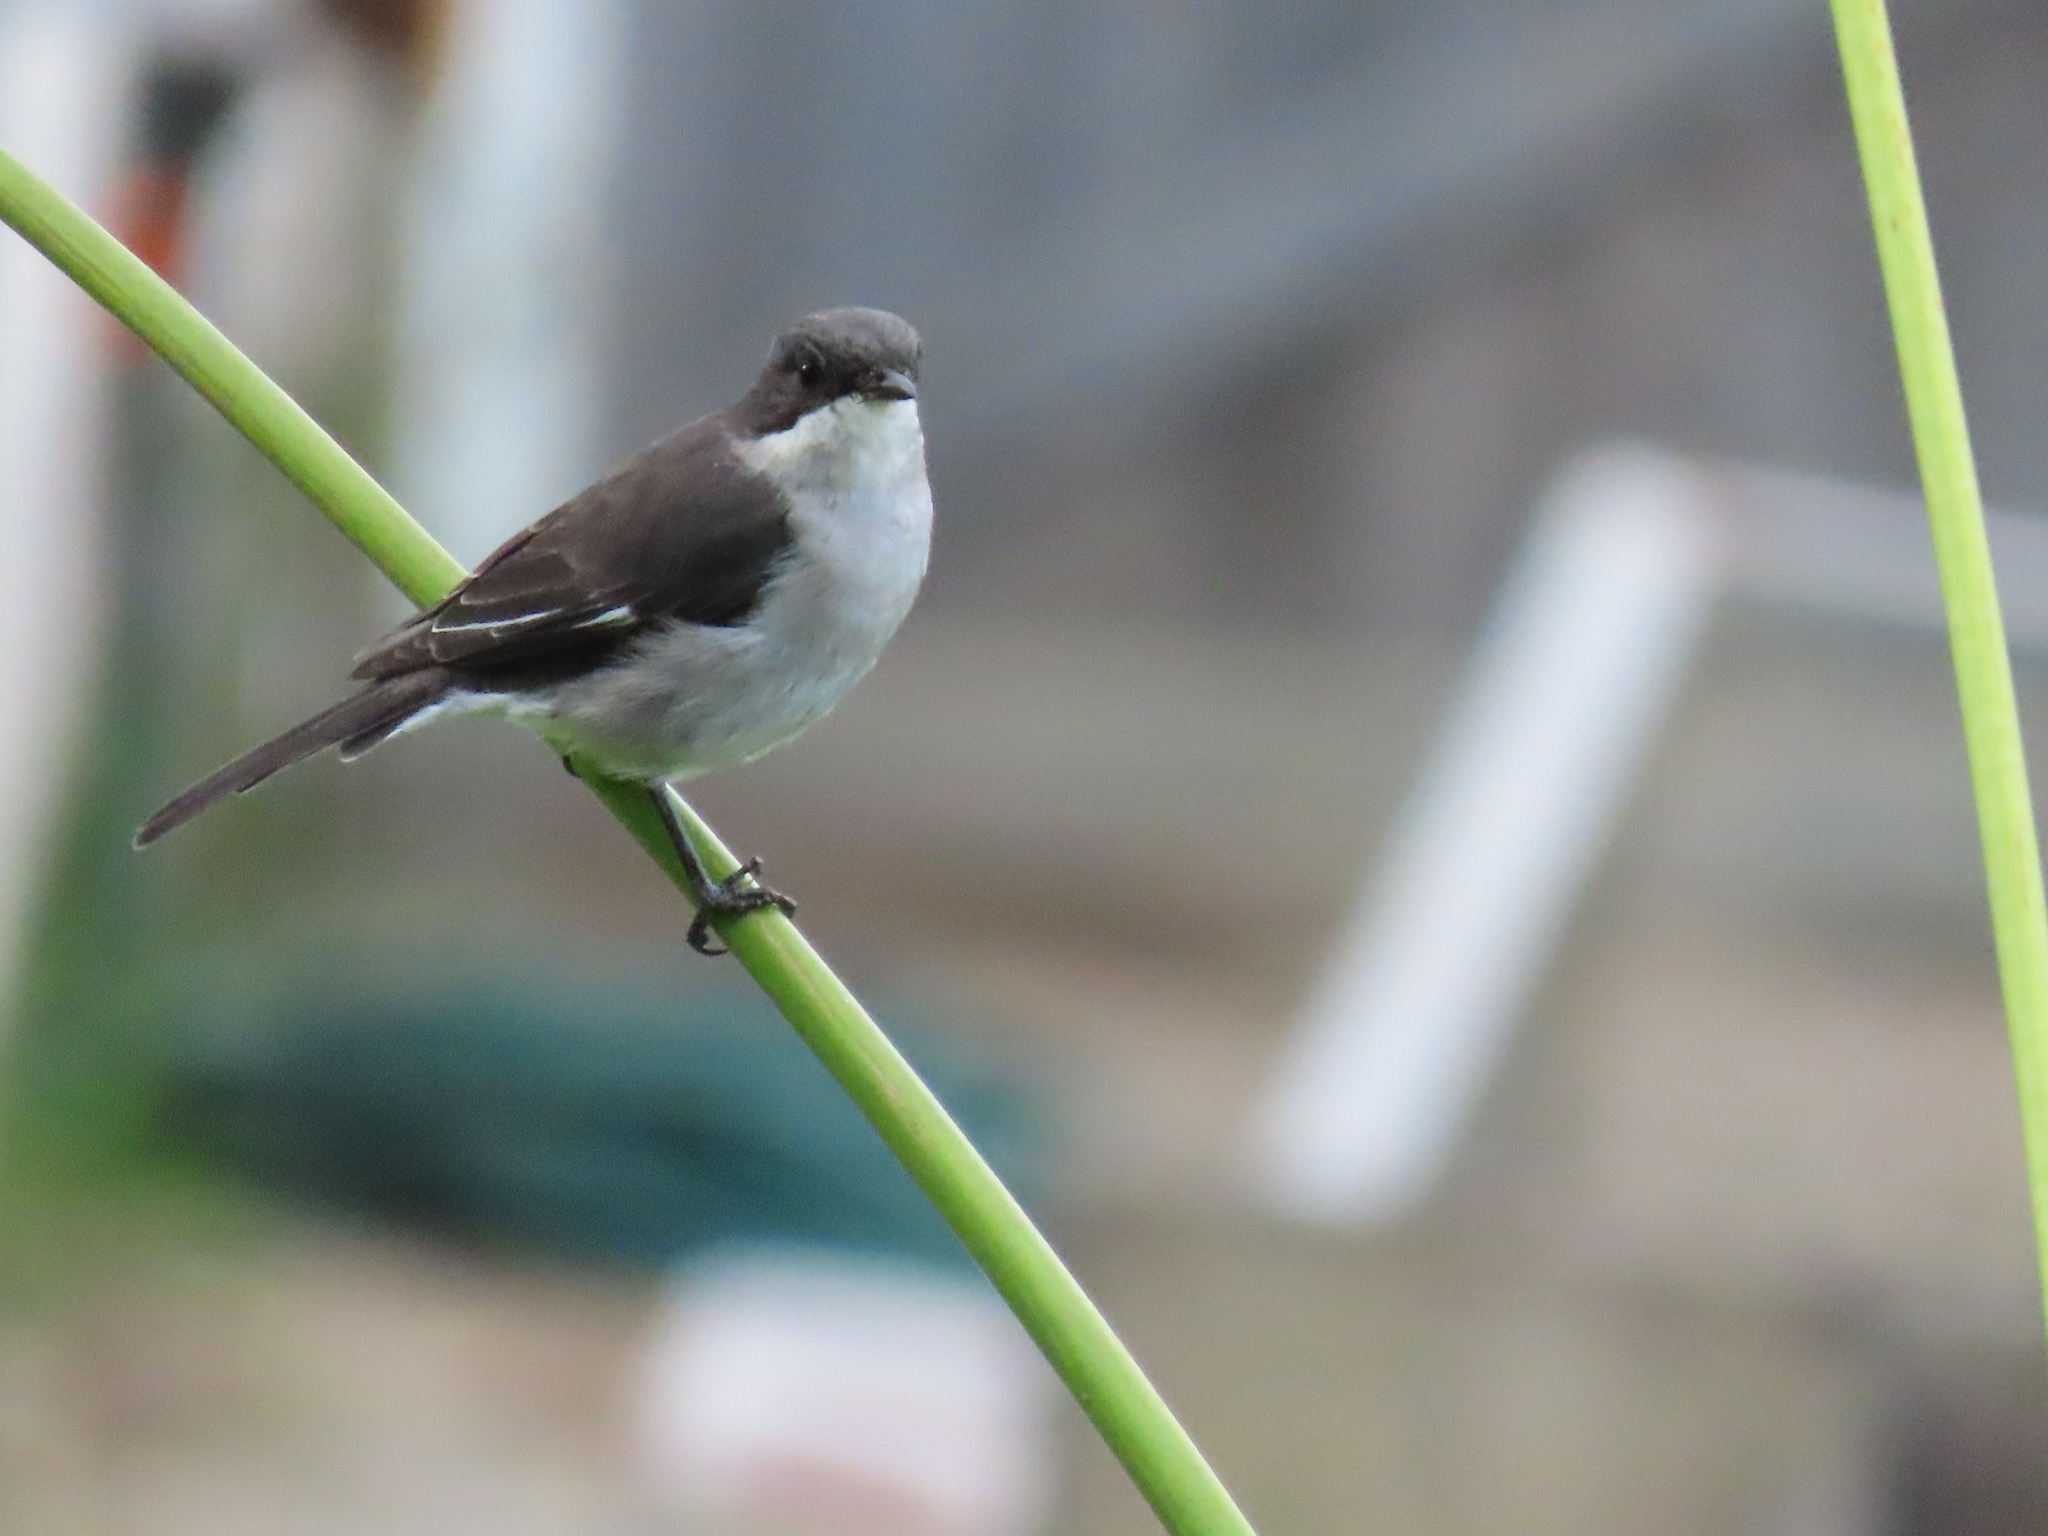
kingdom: Animalia
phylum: Chordata
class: Aves
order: Passeriformes
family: Muscicapidae
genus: Sigelus
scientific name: Sigelus silens
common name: Fiscal flycatcher
